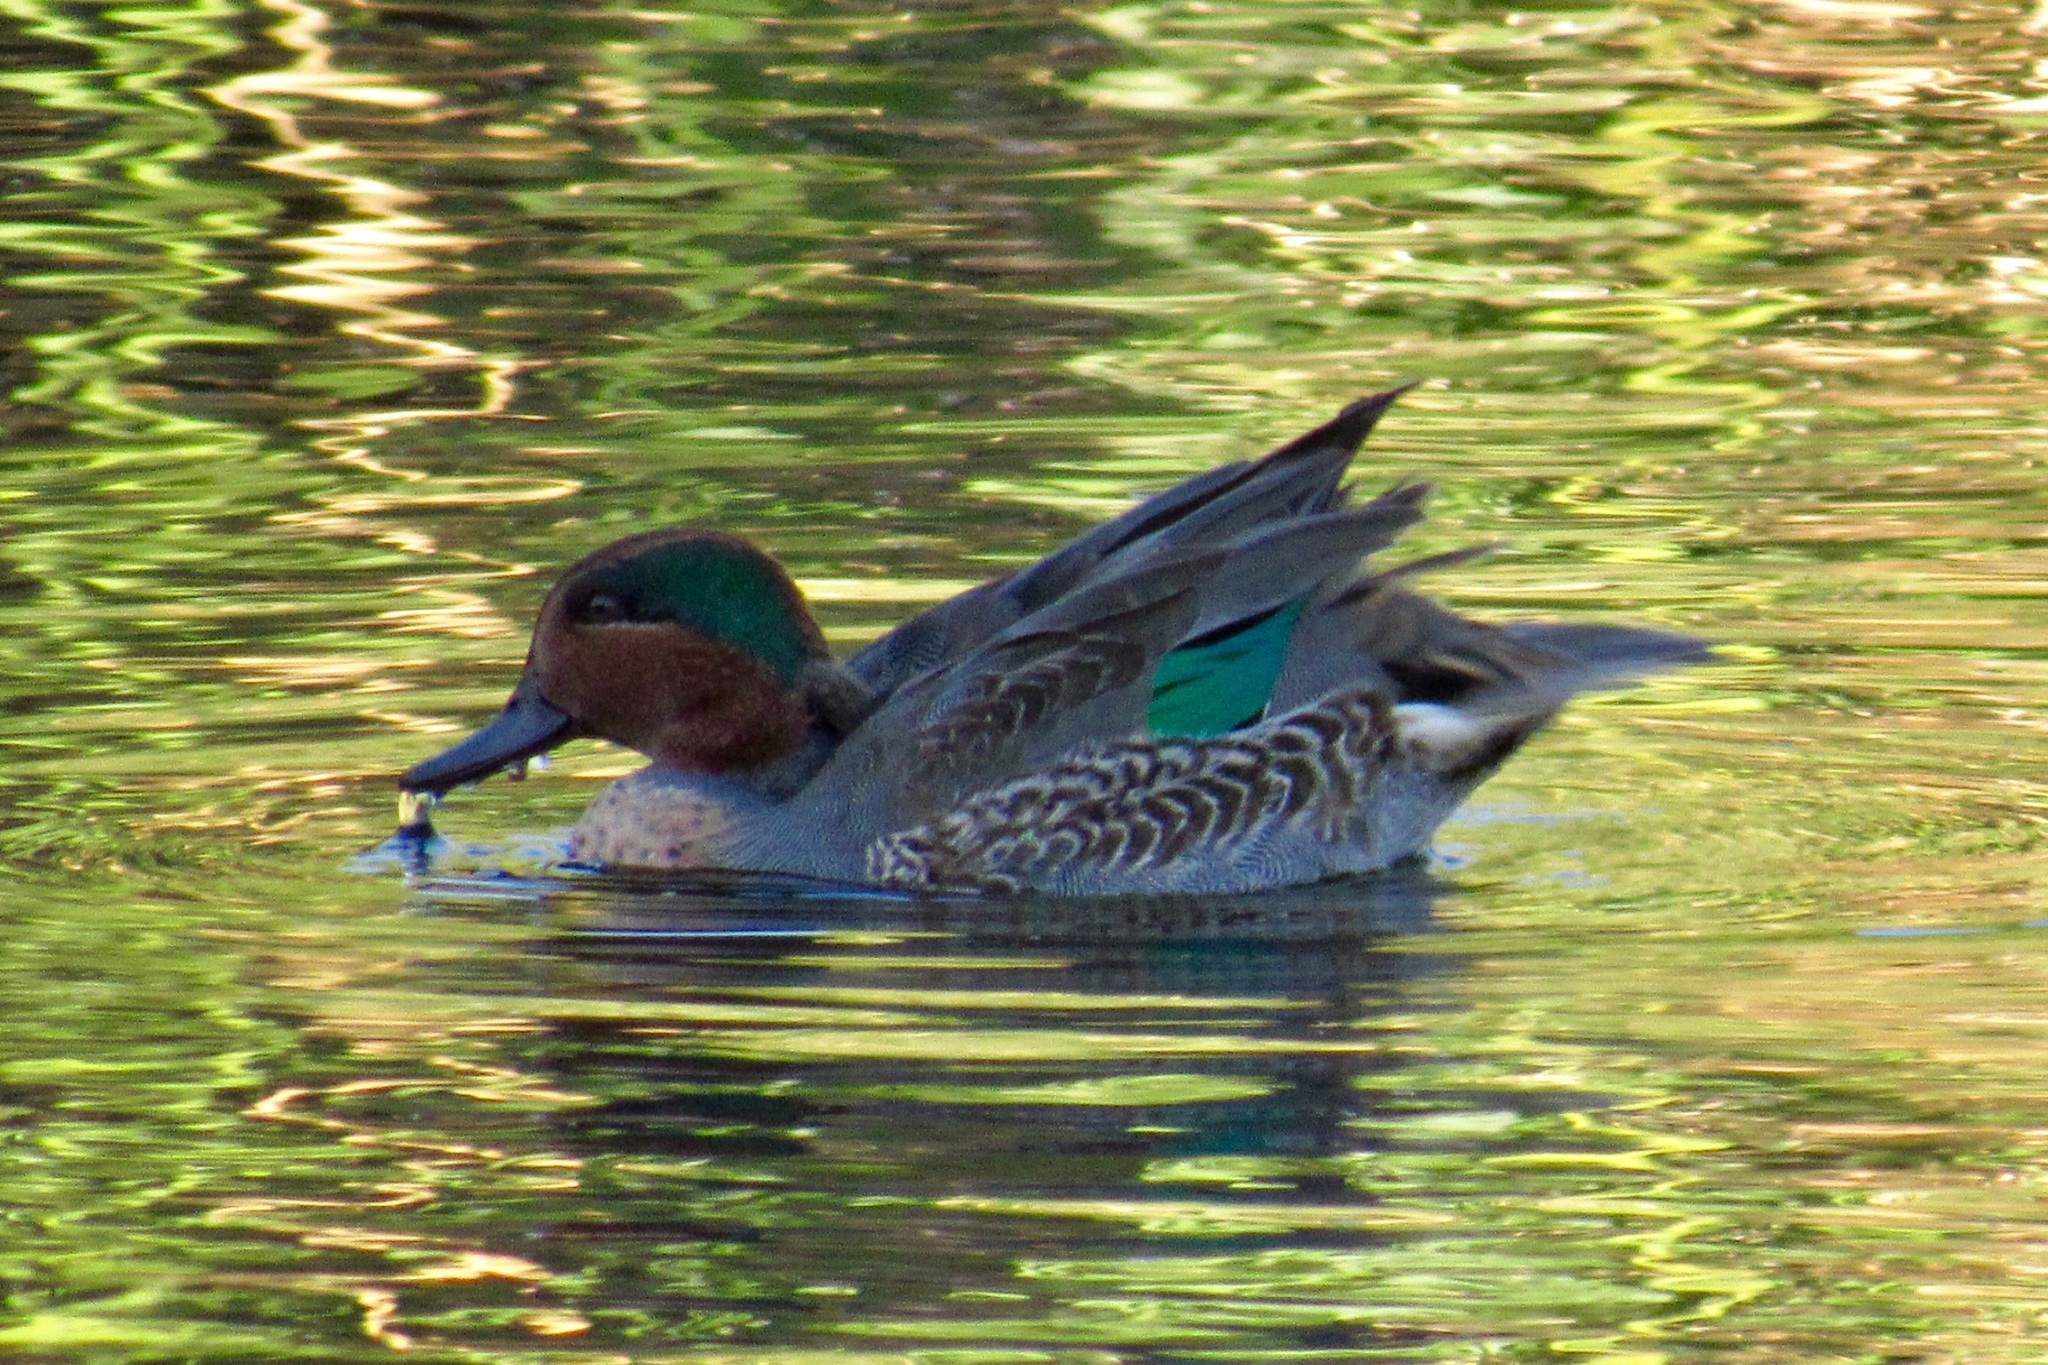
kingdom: Animalia
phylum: Chordata
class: Aves
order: Anseriformes
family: Anatidae
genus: Anas
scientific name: Anas crecca
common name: Eurasian teal
